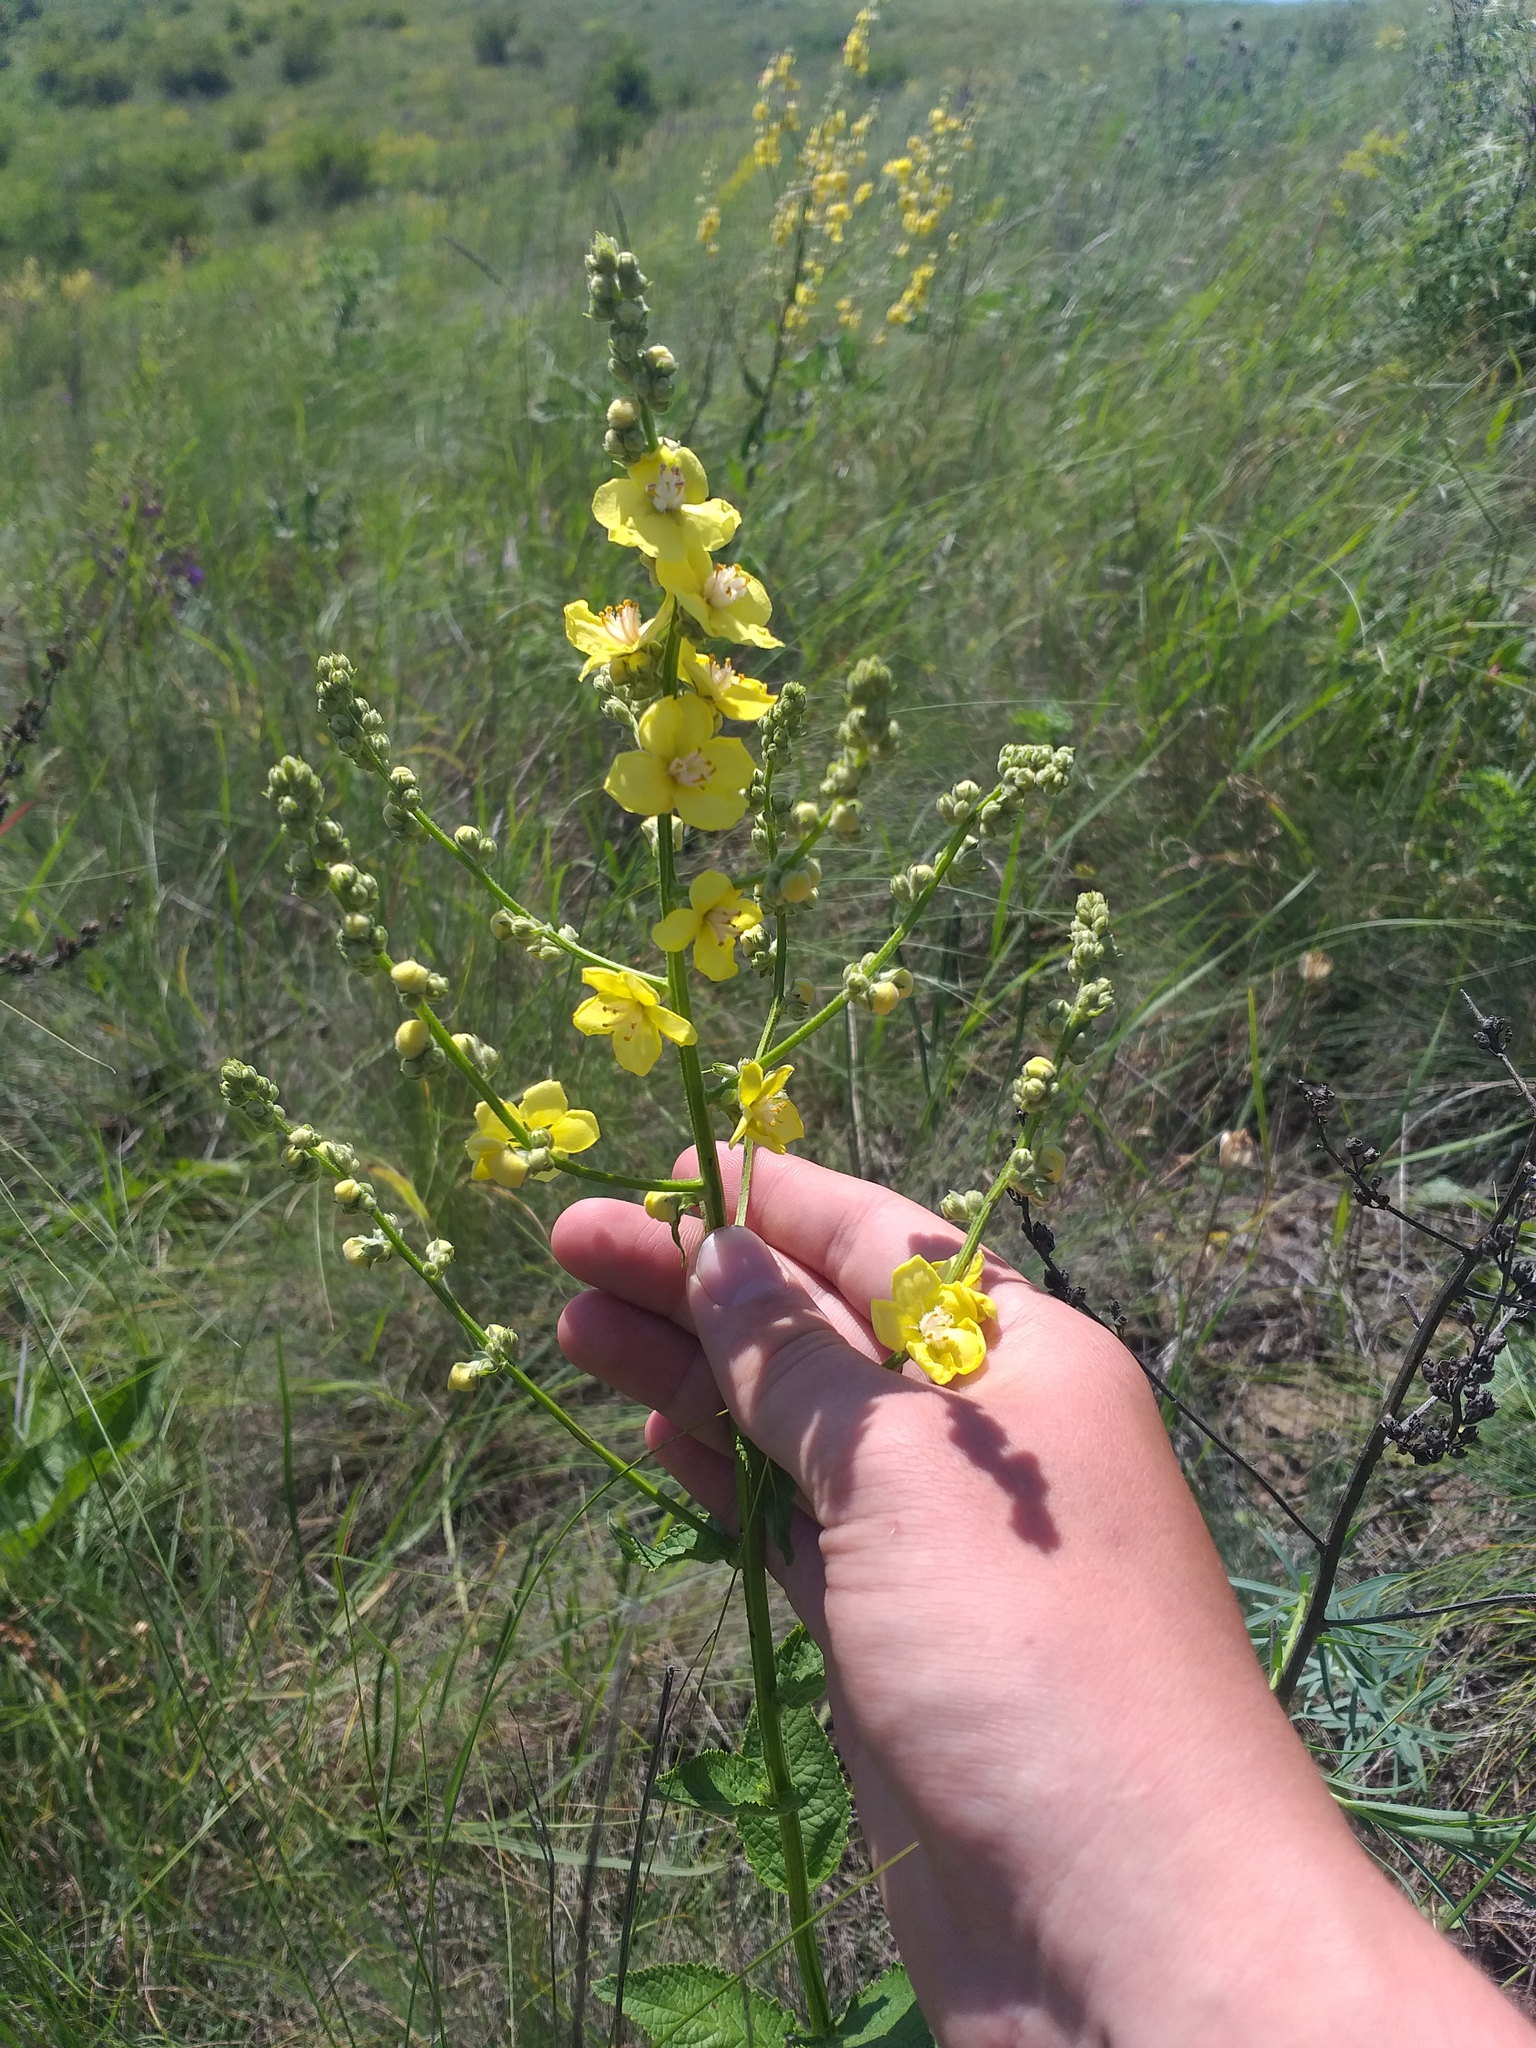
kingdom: Plantae
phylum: Tracheophyta
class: Magnoliopsida
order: Lamiales
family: Scrophulariaceae
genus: Verbascum
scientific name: Verbascum chaixii
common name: Nettle-leaved mullein
